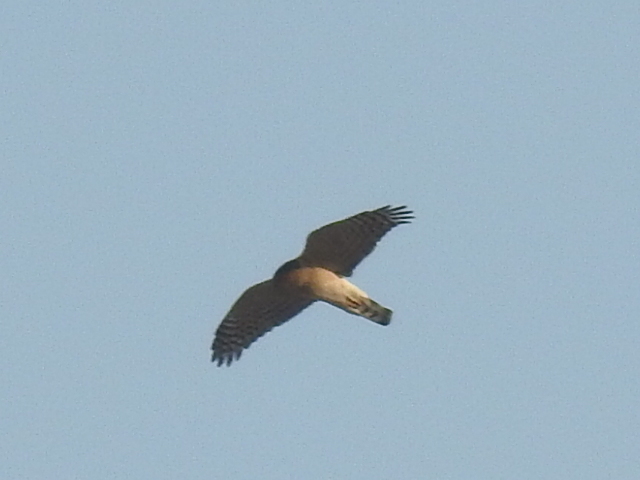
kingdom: Animalia
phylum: Chordata
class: Aves
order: Accipitriformes
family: Accipitridae
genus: Accipiter
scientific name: Accipiter nisus
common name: Eurasian sparrowhawk
